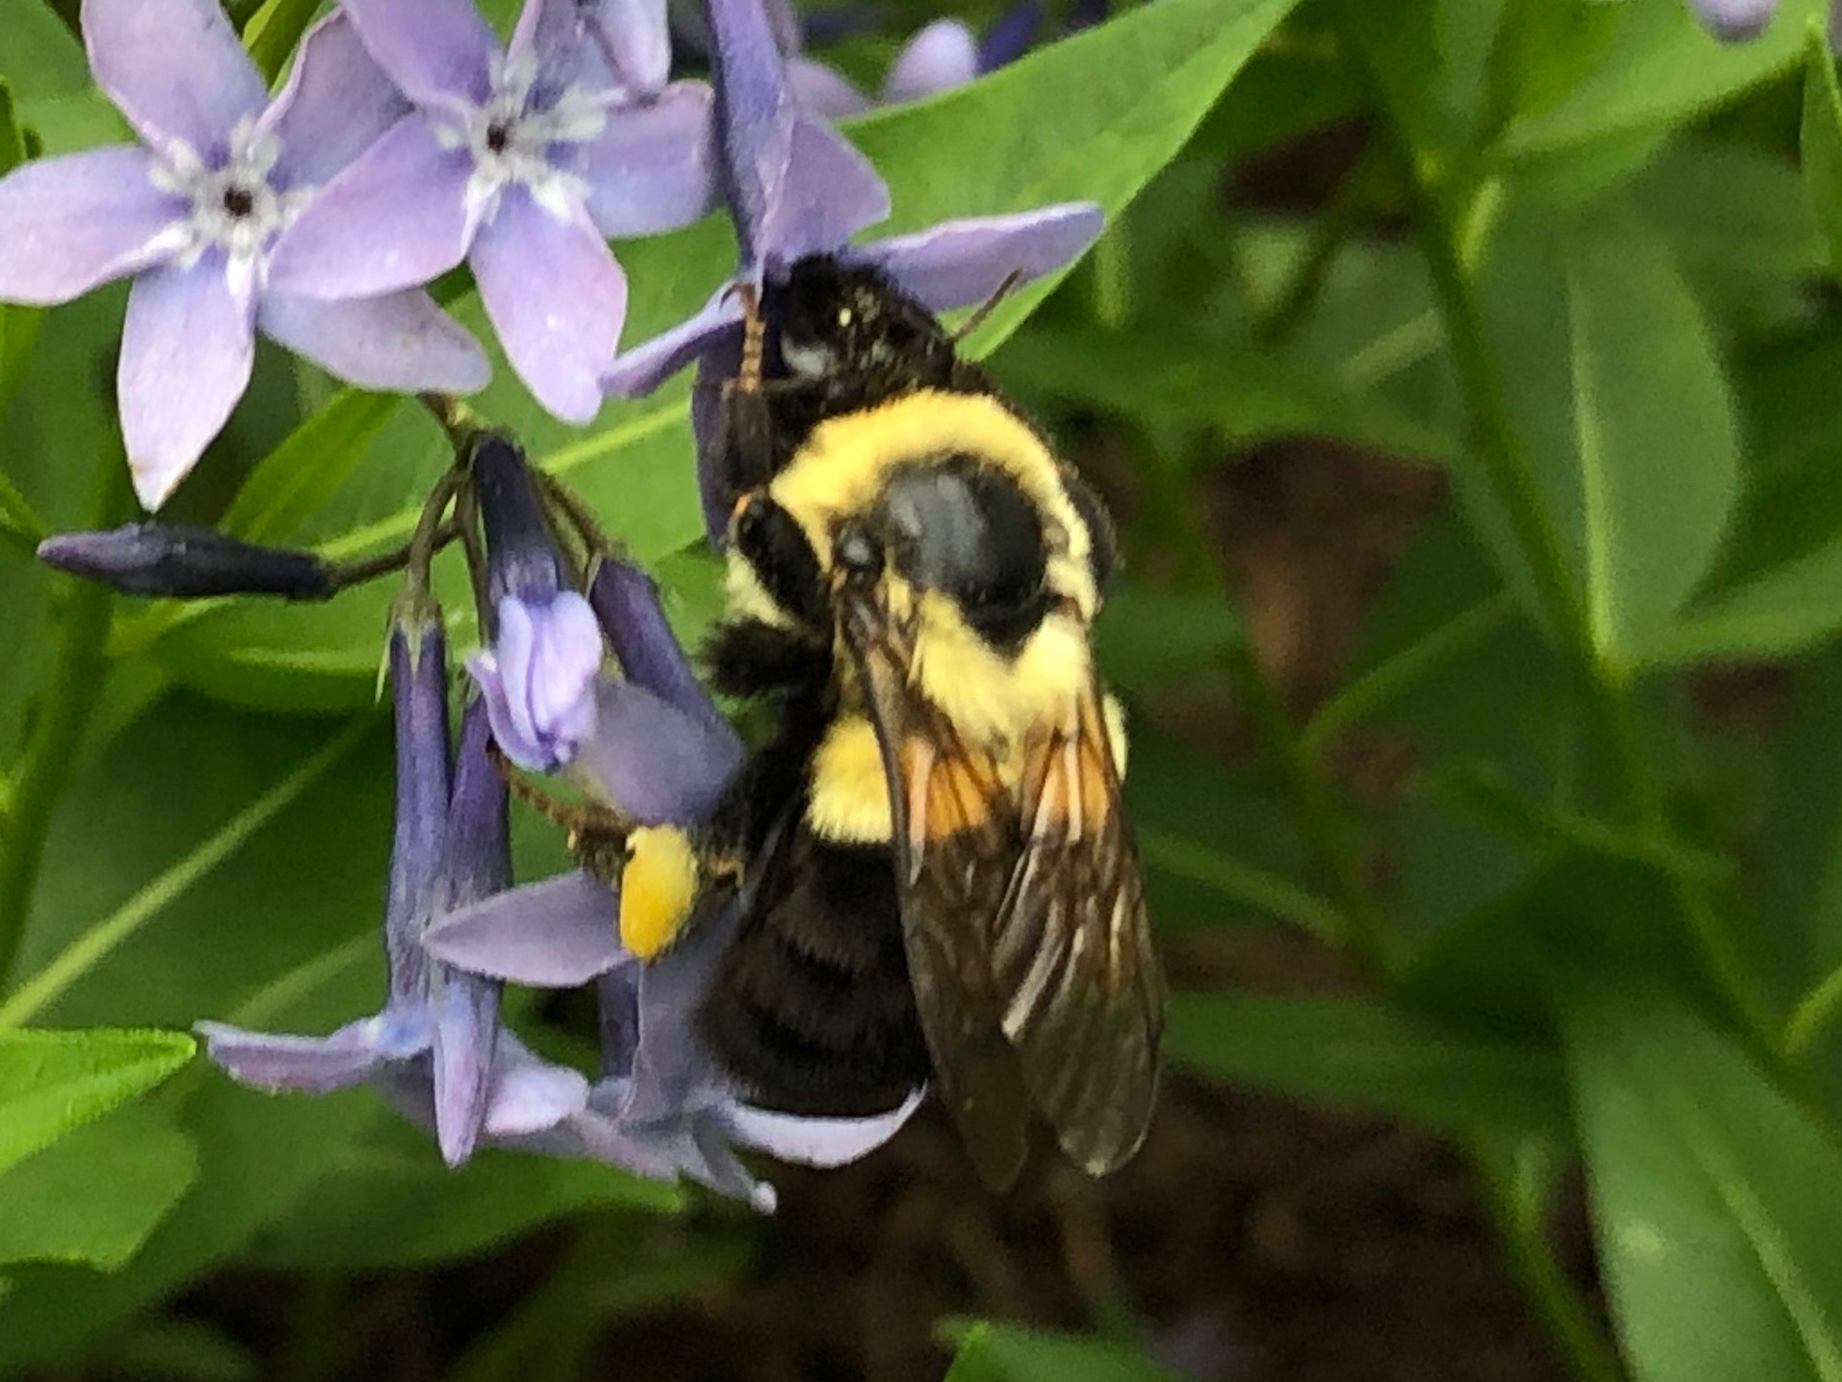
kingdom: Animalia
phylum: Arthropoda
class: Insecta
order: Hymenoptera
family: Apidae
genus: Bombus
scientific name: Bombus impatiens
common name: Common eastern bumble bee
